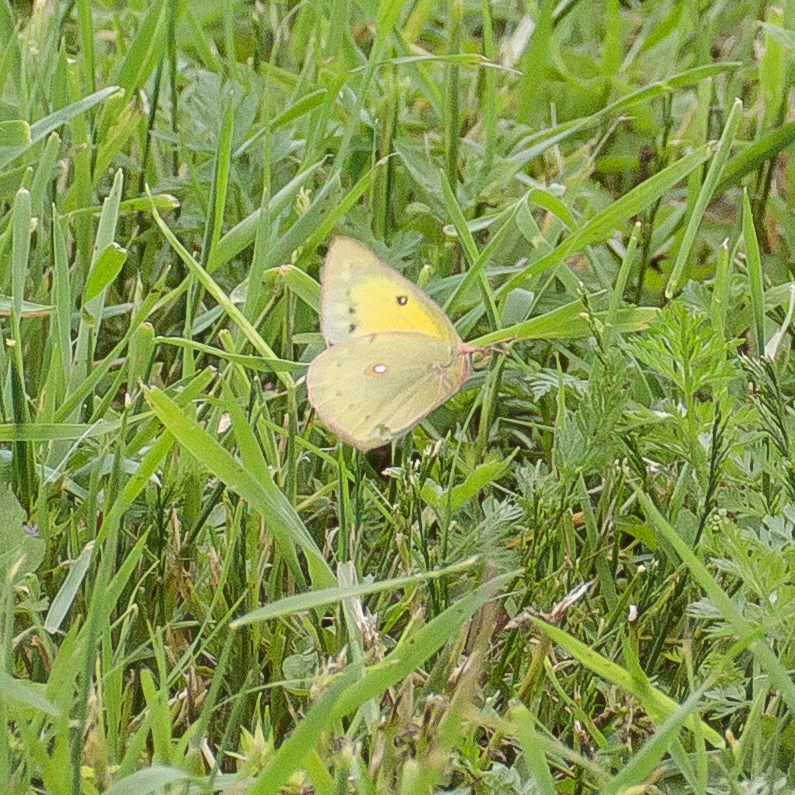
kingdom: Animalia
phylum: Arthropoda
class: Insecta
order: Lepidoptera
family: Pieridae
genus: Colias
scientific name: Colias eurytheme
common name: Alfalfa butterfly
